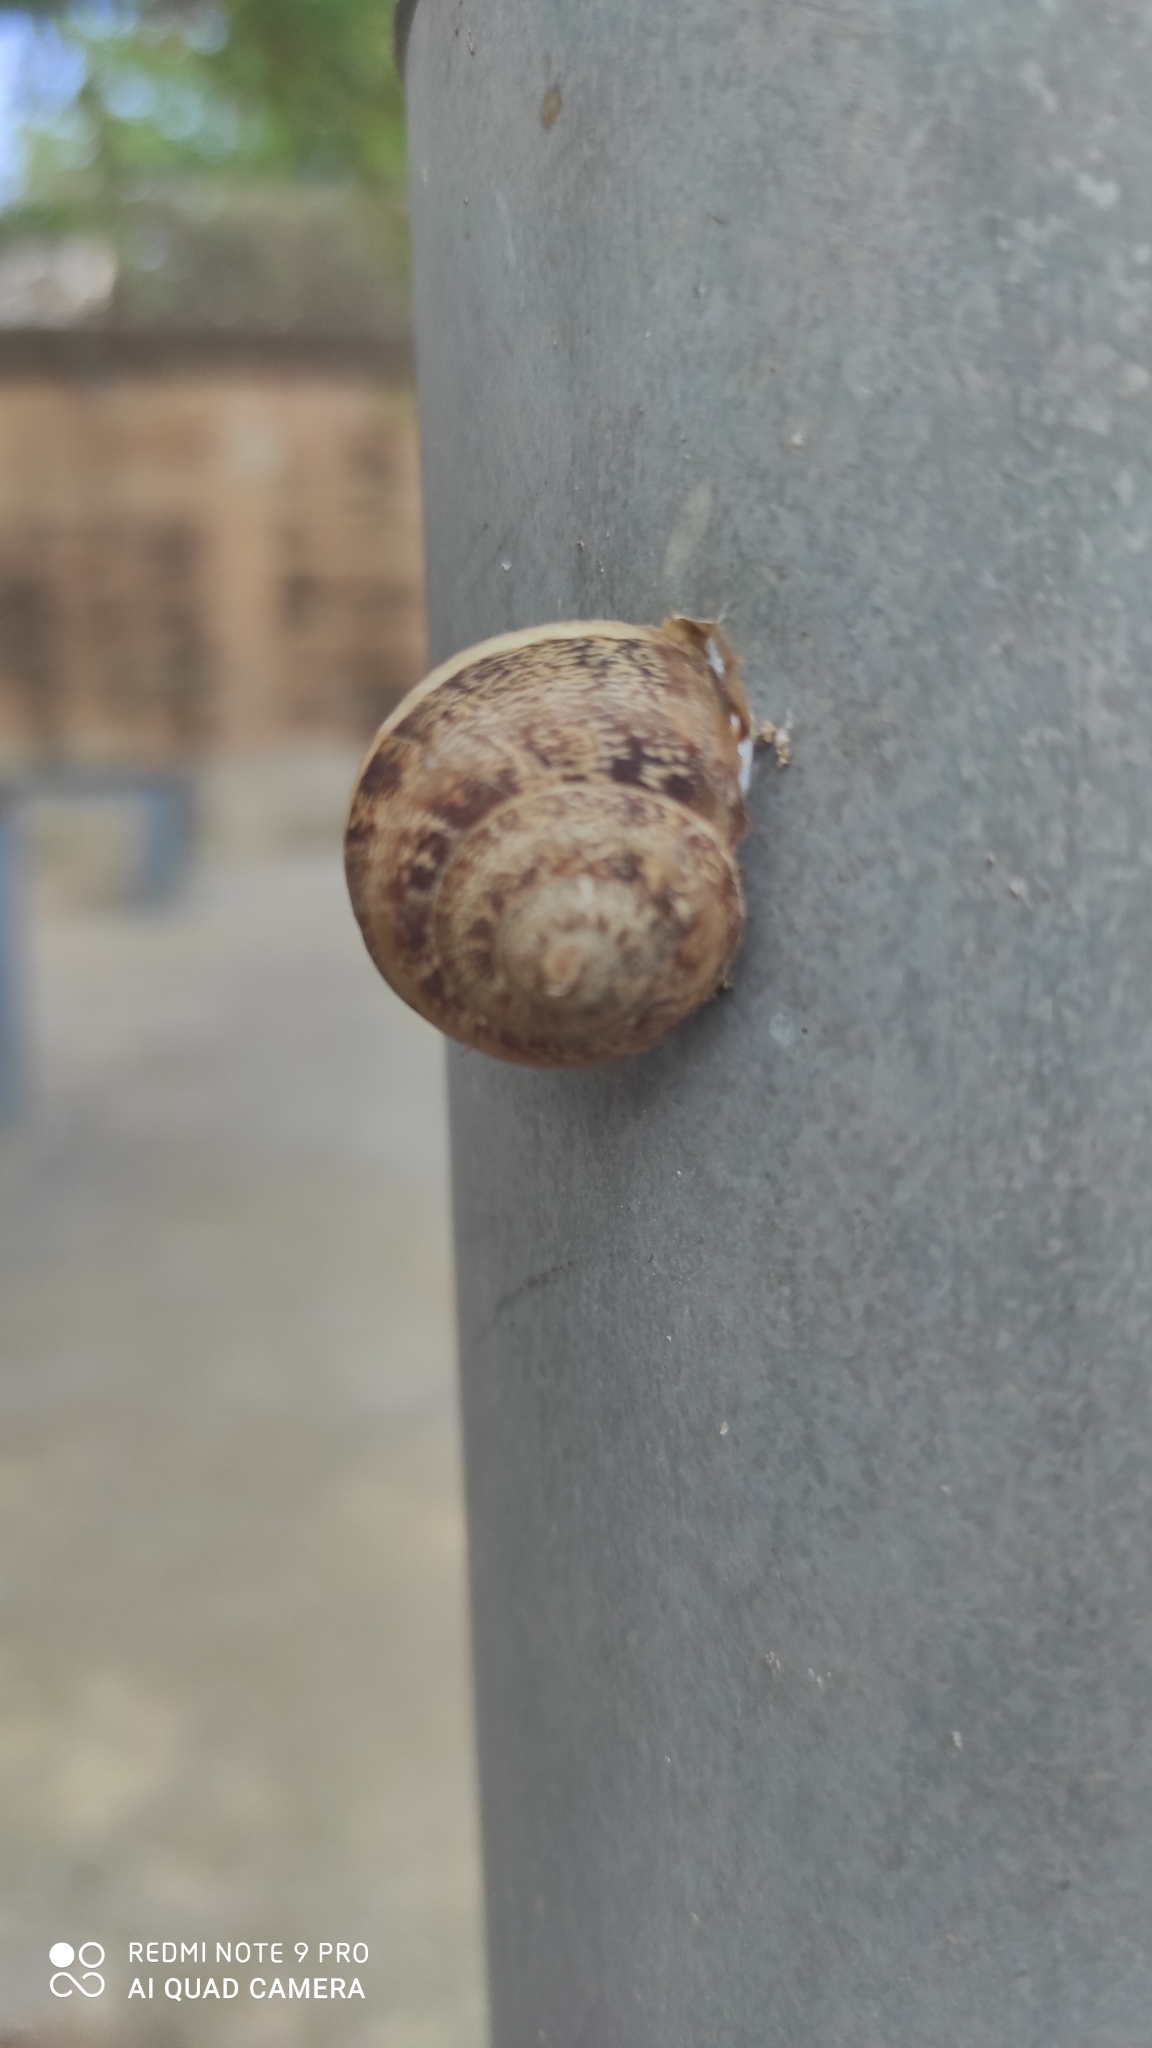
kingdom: Animalia
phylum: Mollusca
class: Gastropoda
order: Stylommatophora
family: Helicidae
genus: Eobania
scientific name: Eobania vermiculata
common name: Chocolateband snail
